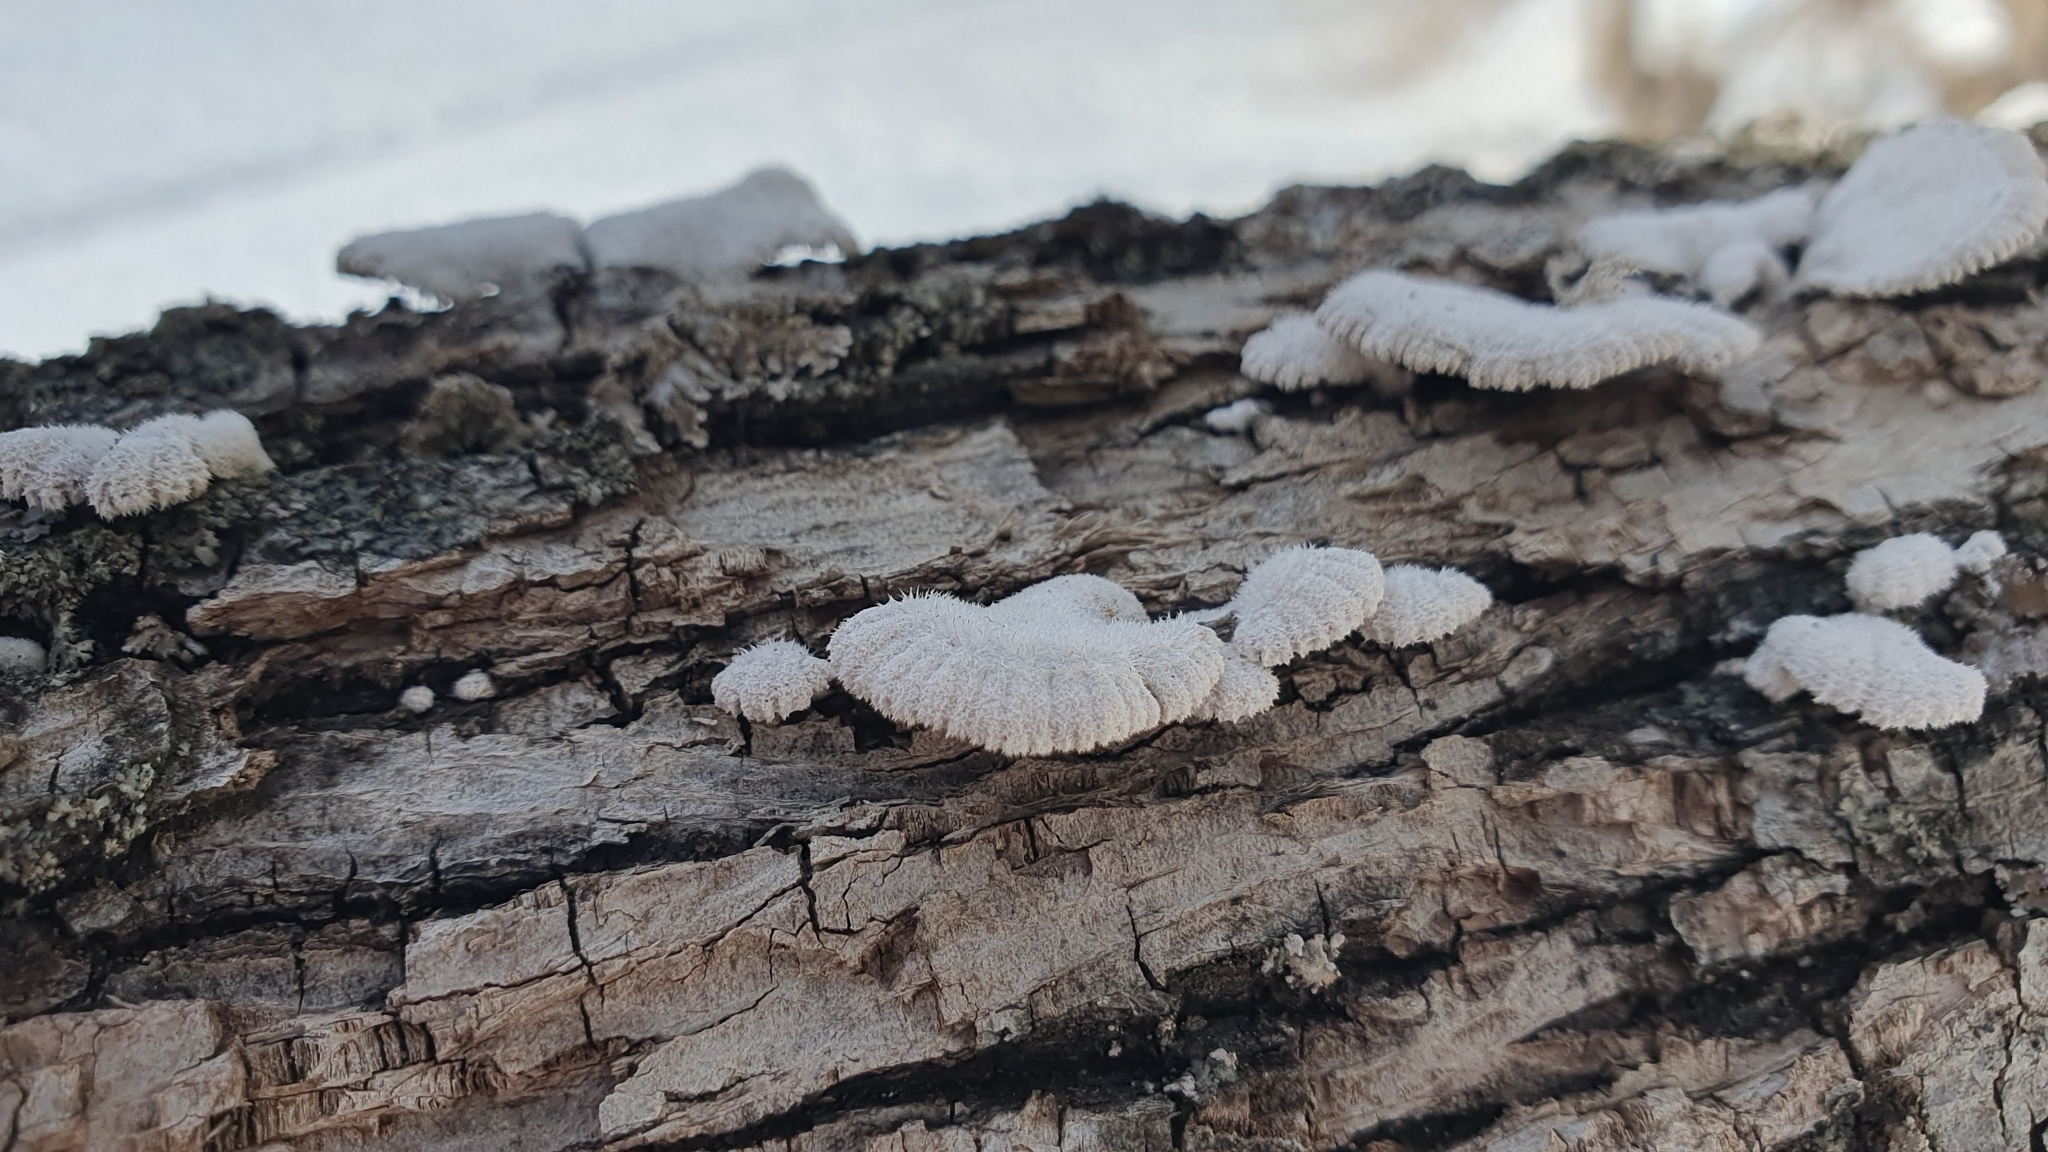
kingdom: Fungi
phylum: Basidiomycota
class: Agaricomycetes
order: Agaricales
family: Schizophyllaceae
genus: Schizophyllum
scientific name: Schizophyllum commune
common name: Common porecrust
